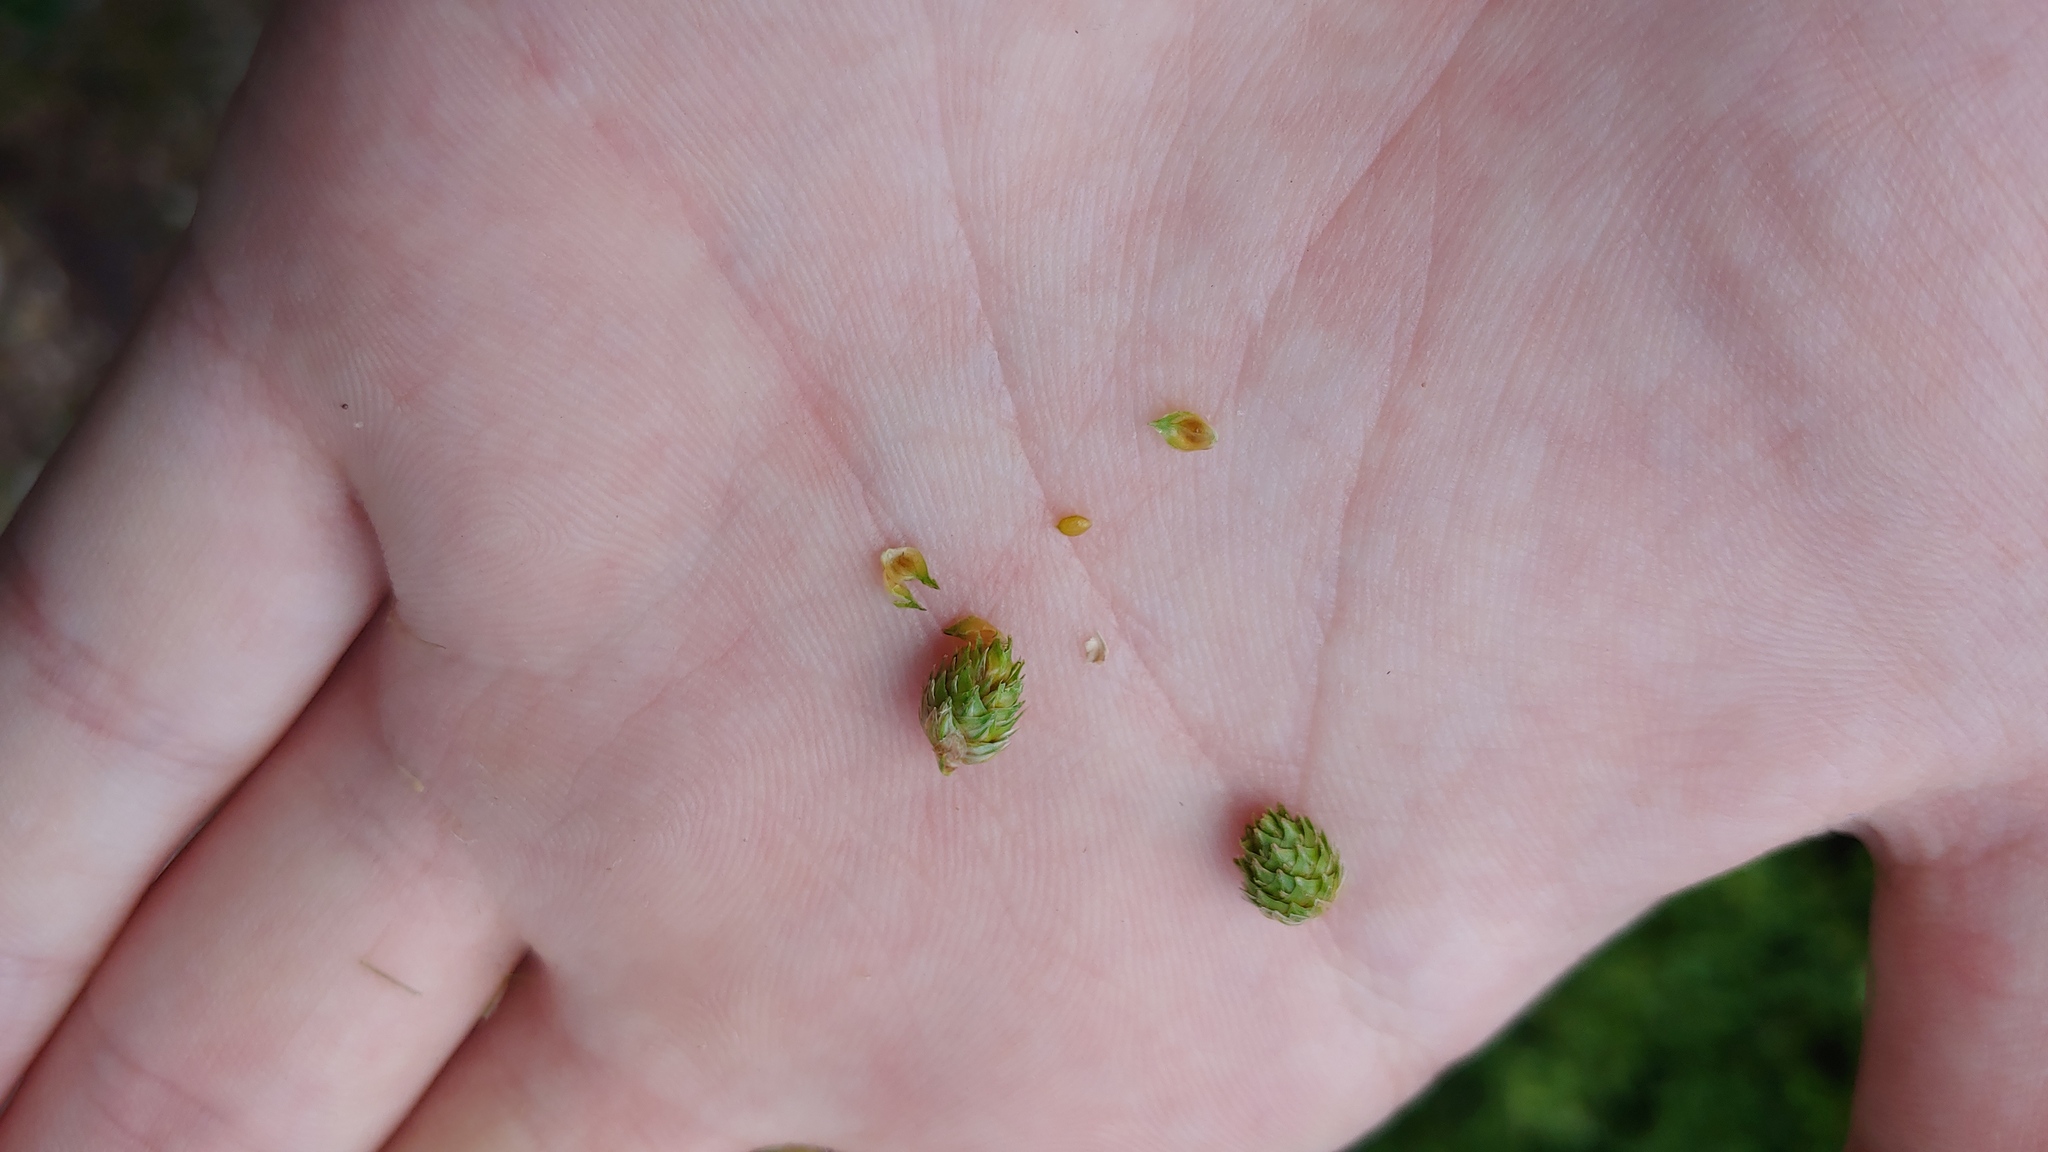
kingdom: Plantae
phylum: Tracheophyta
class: Liliopsida
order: Poales
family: Cyperaceae
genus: Carex
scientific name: Carex cumulata
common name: Accumulating sedge
